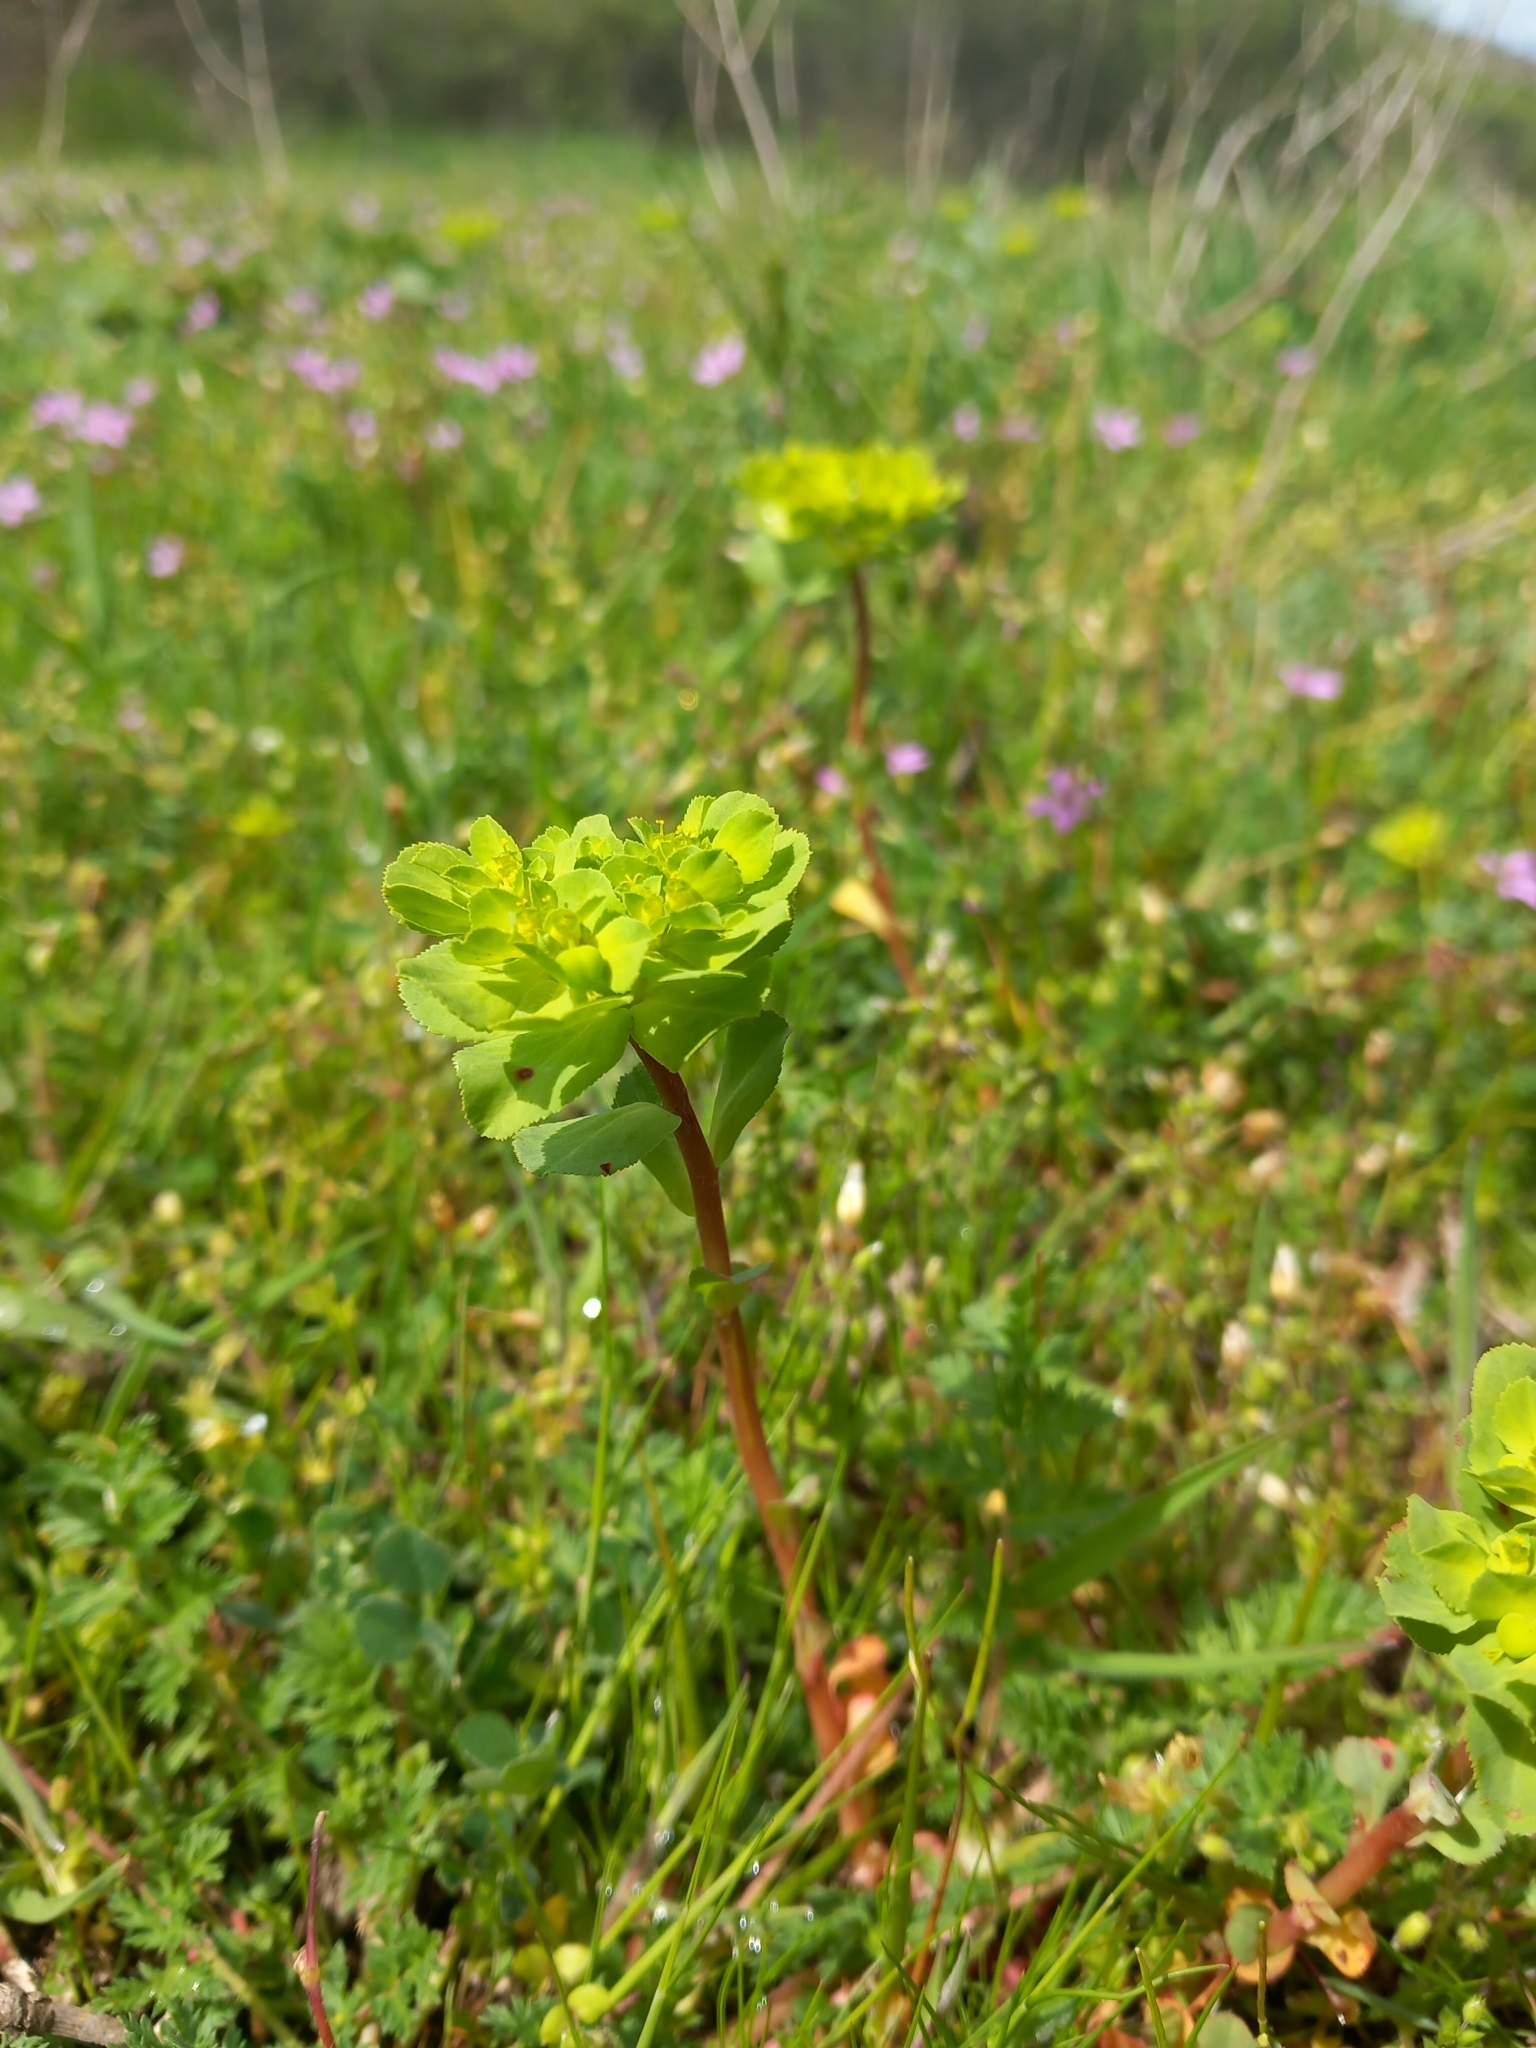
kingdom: Plantae
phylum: Tracheophyta
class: Magnoliopsida
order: Malpighiales
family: Euphorbiaceae
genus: Euphorbia
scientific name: Euphorbia helioscopia
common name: Sun spurge
